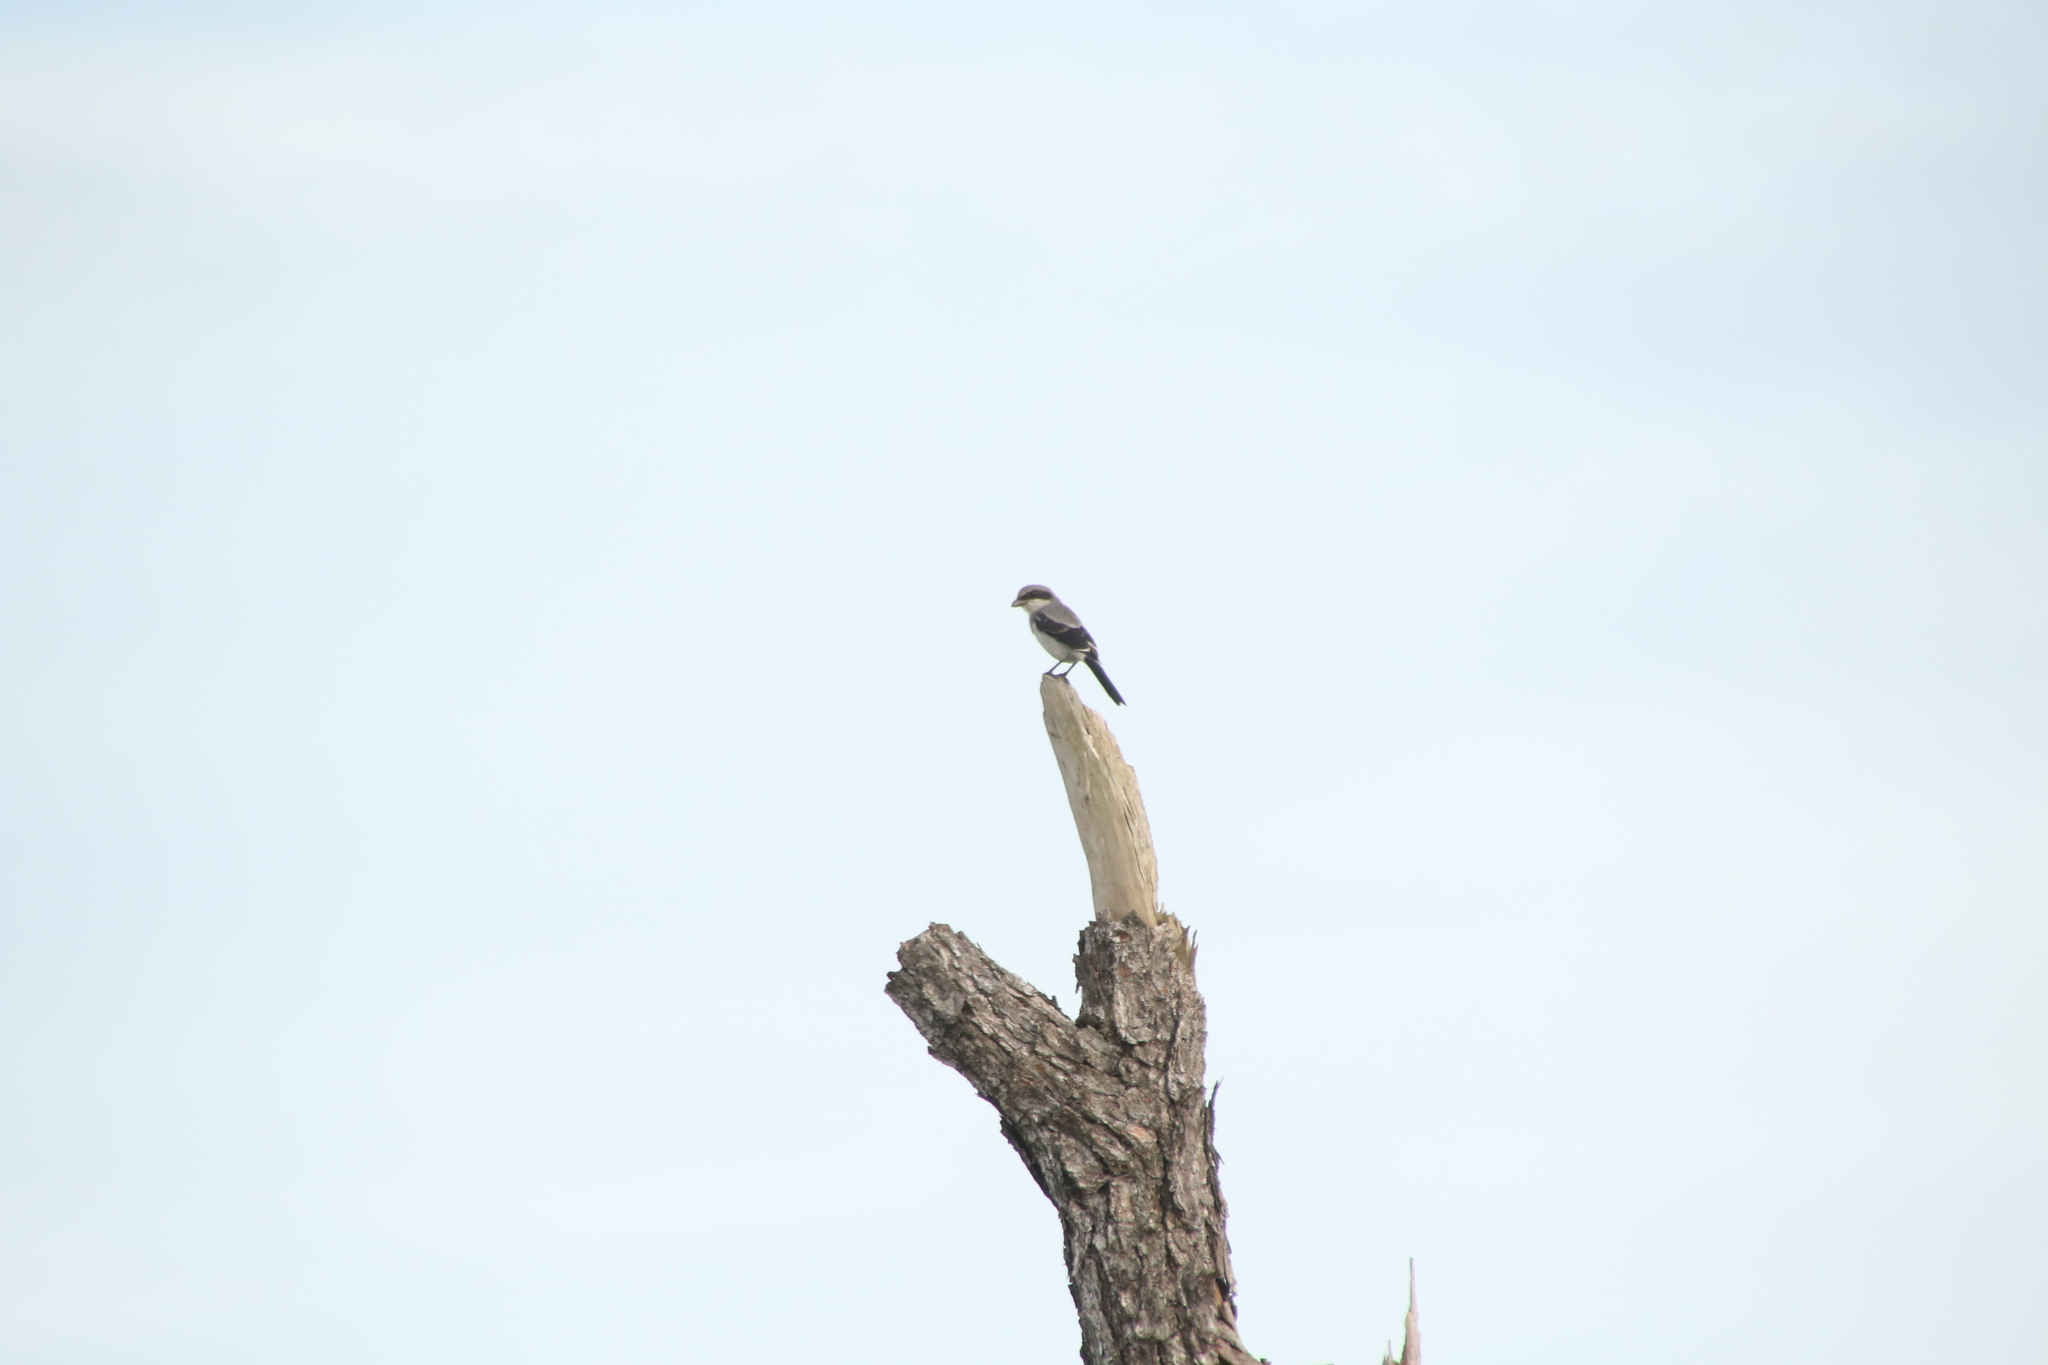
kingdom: Animalia
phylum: Chordata
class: Aves
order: Passeriformes
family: Laniidae
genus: Lanius
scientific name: Lanius ludovicianus
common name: Loggerhead shrike
